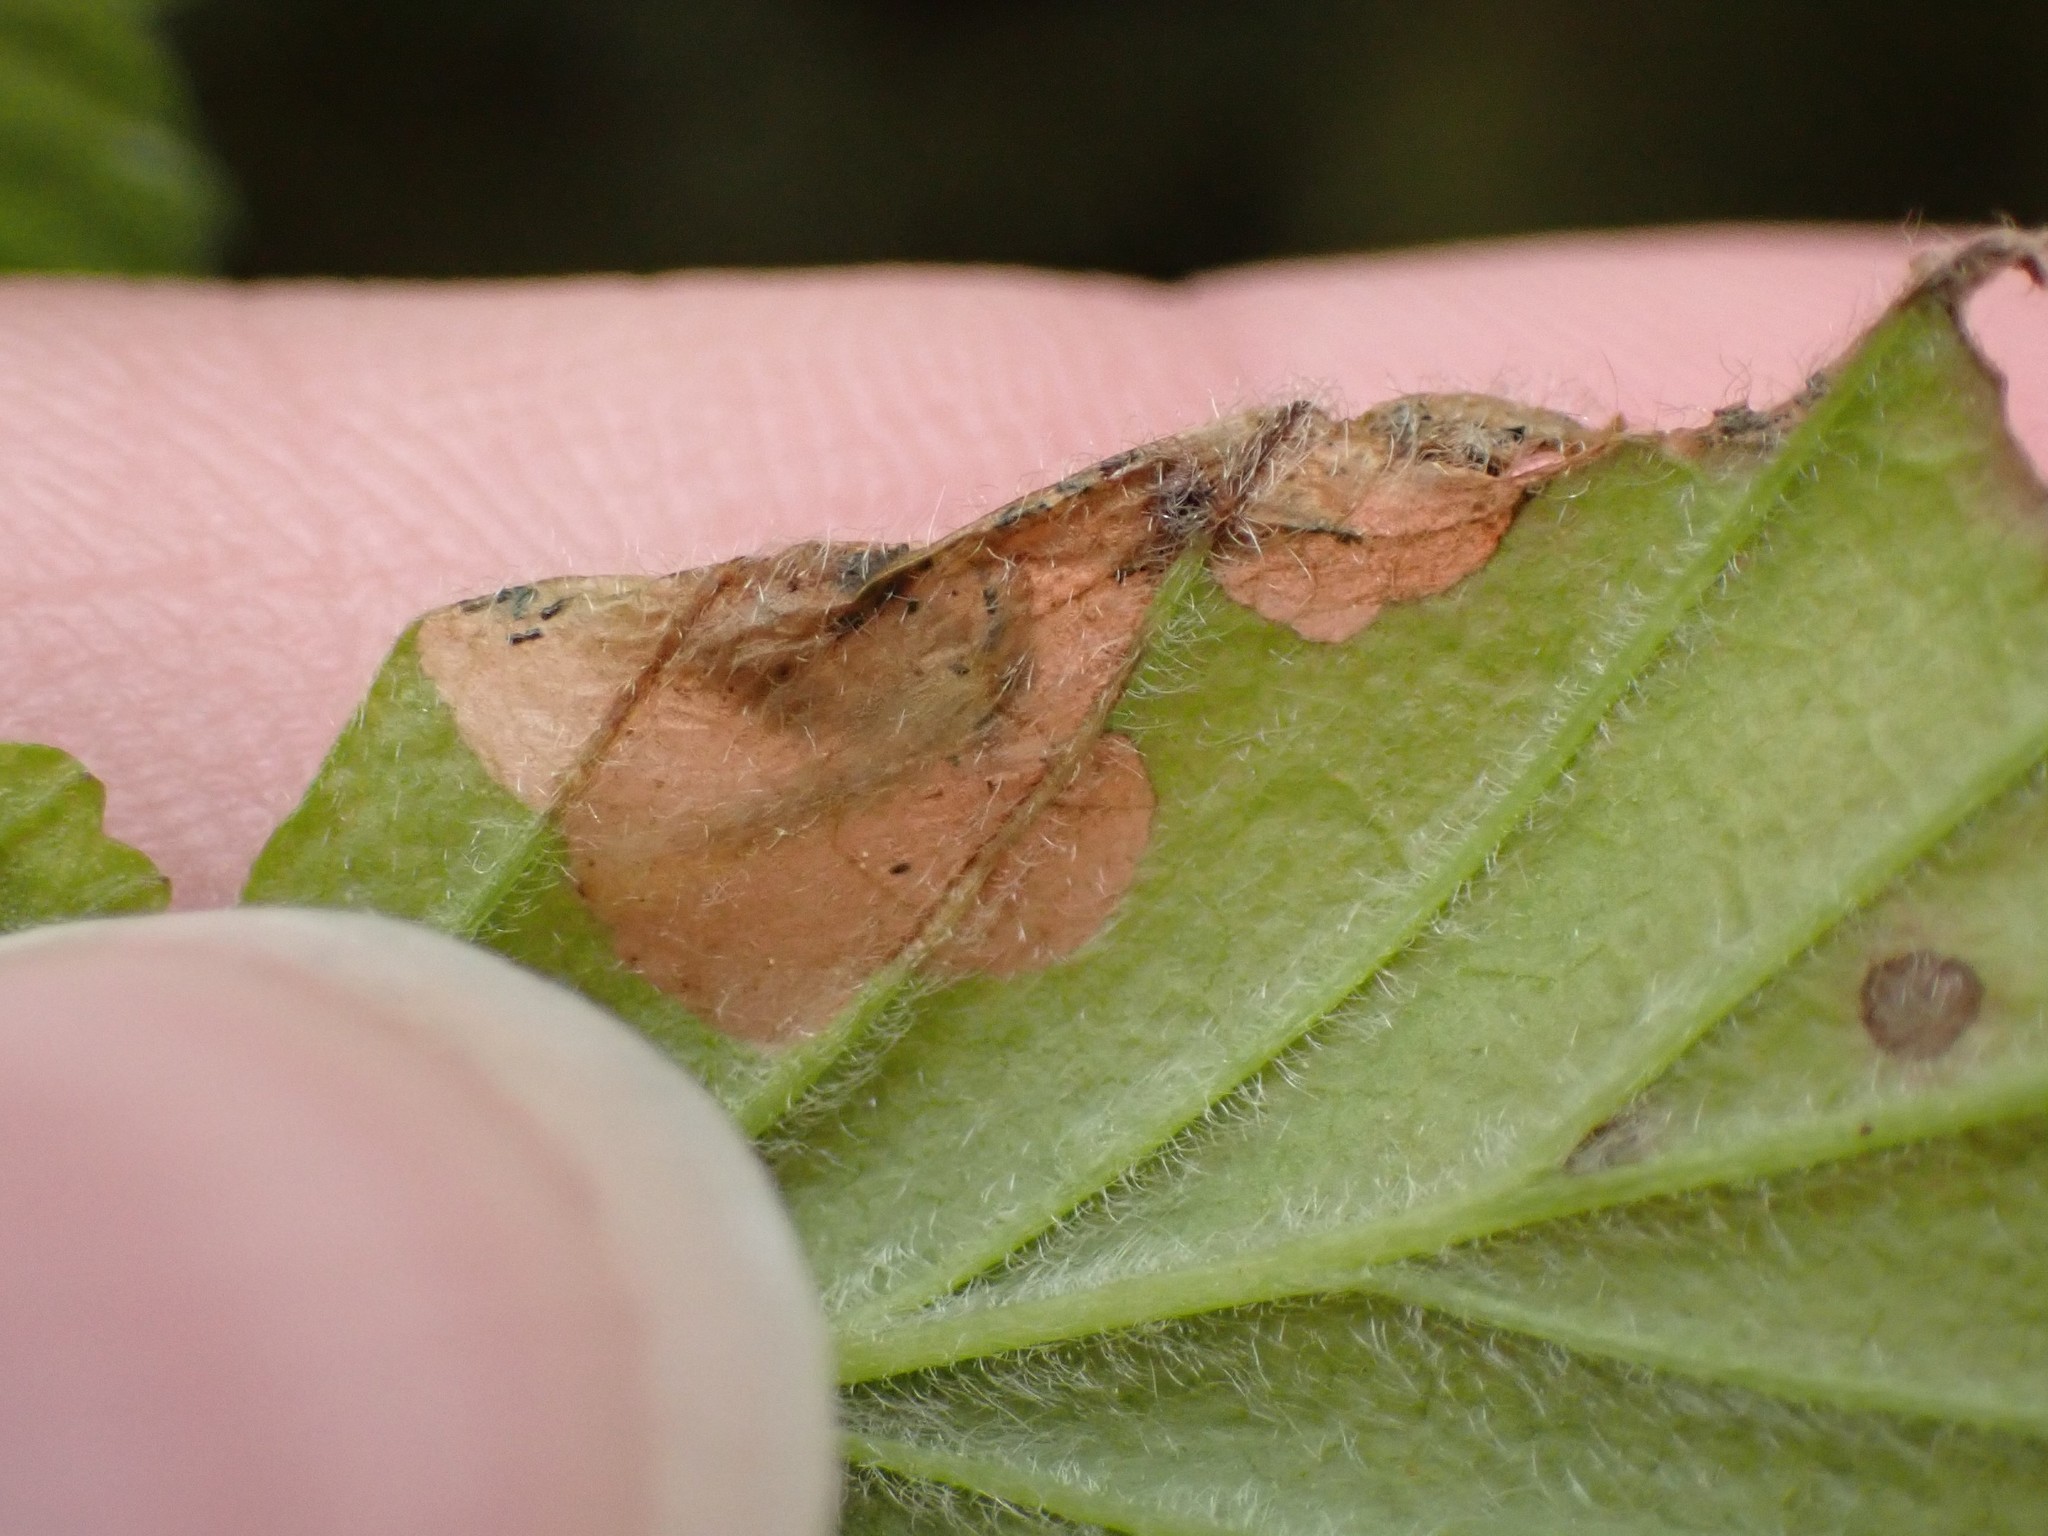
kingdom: Animalia
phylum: Arthropoda
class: Insecta
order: Lepidoptera
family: Eriocraniidae
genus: Eriocrania
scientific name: Eriocrania semipurpurella
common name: Early purple
